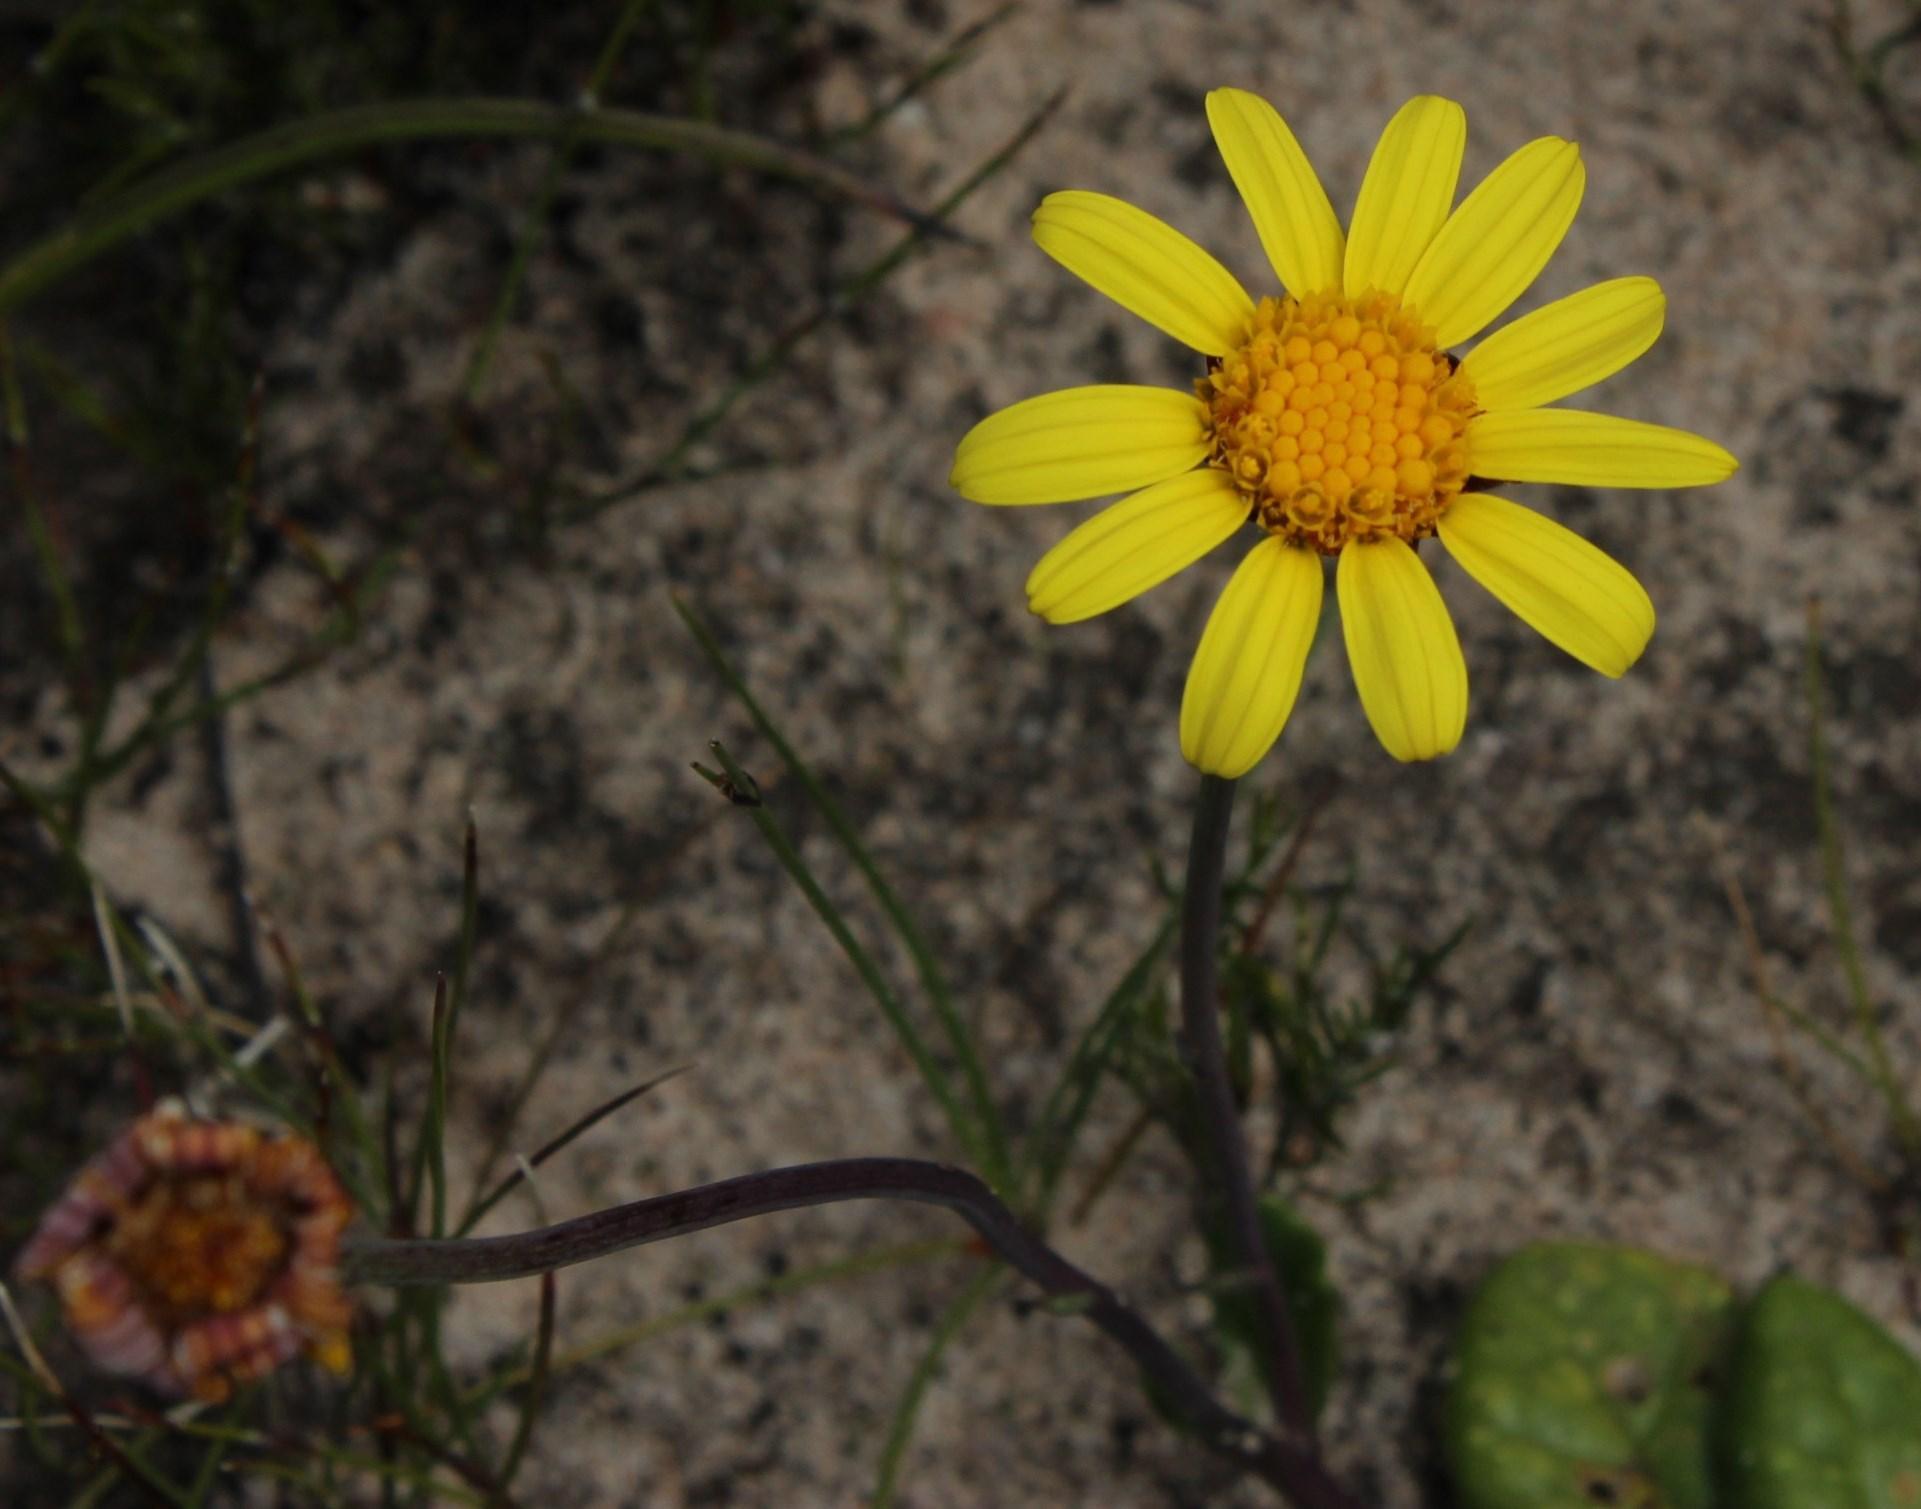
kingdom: Plantae
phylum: Tracheophyta
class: Magnoliopsida
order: Asterales
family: Asteraceae
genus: Othonna
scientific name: Othonna heterophylla
